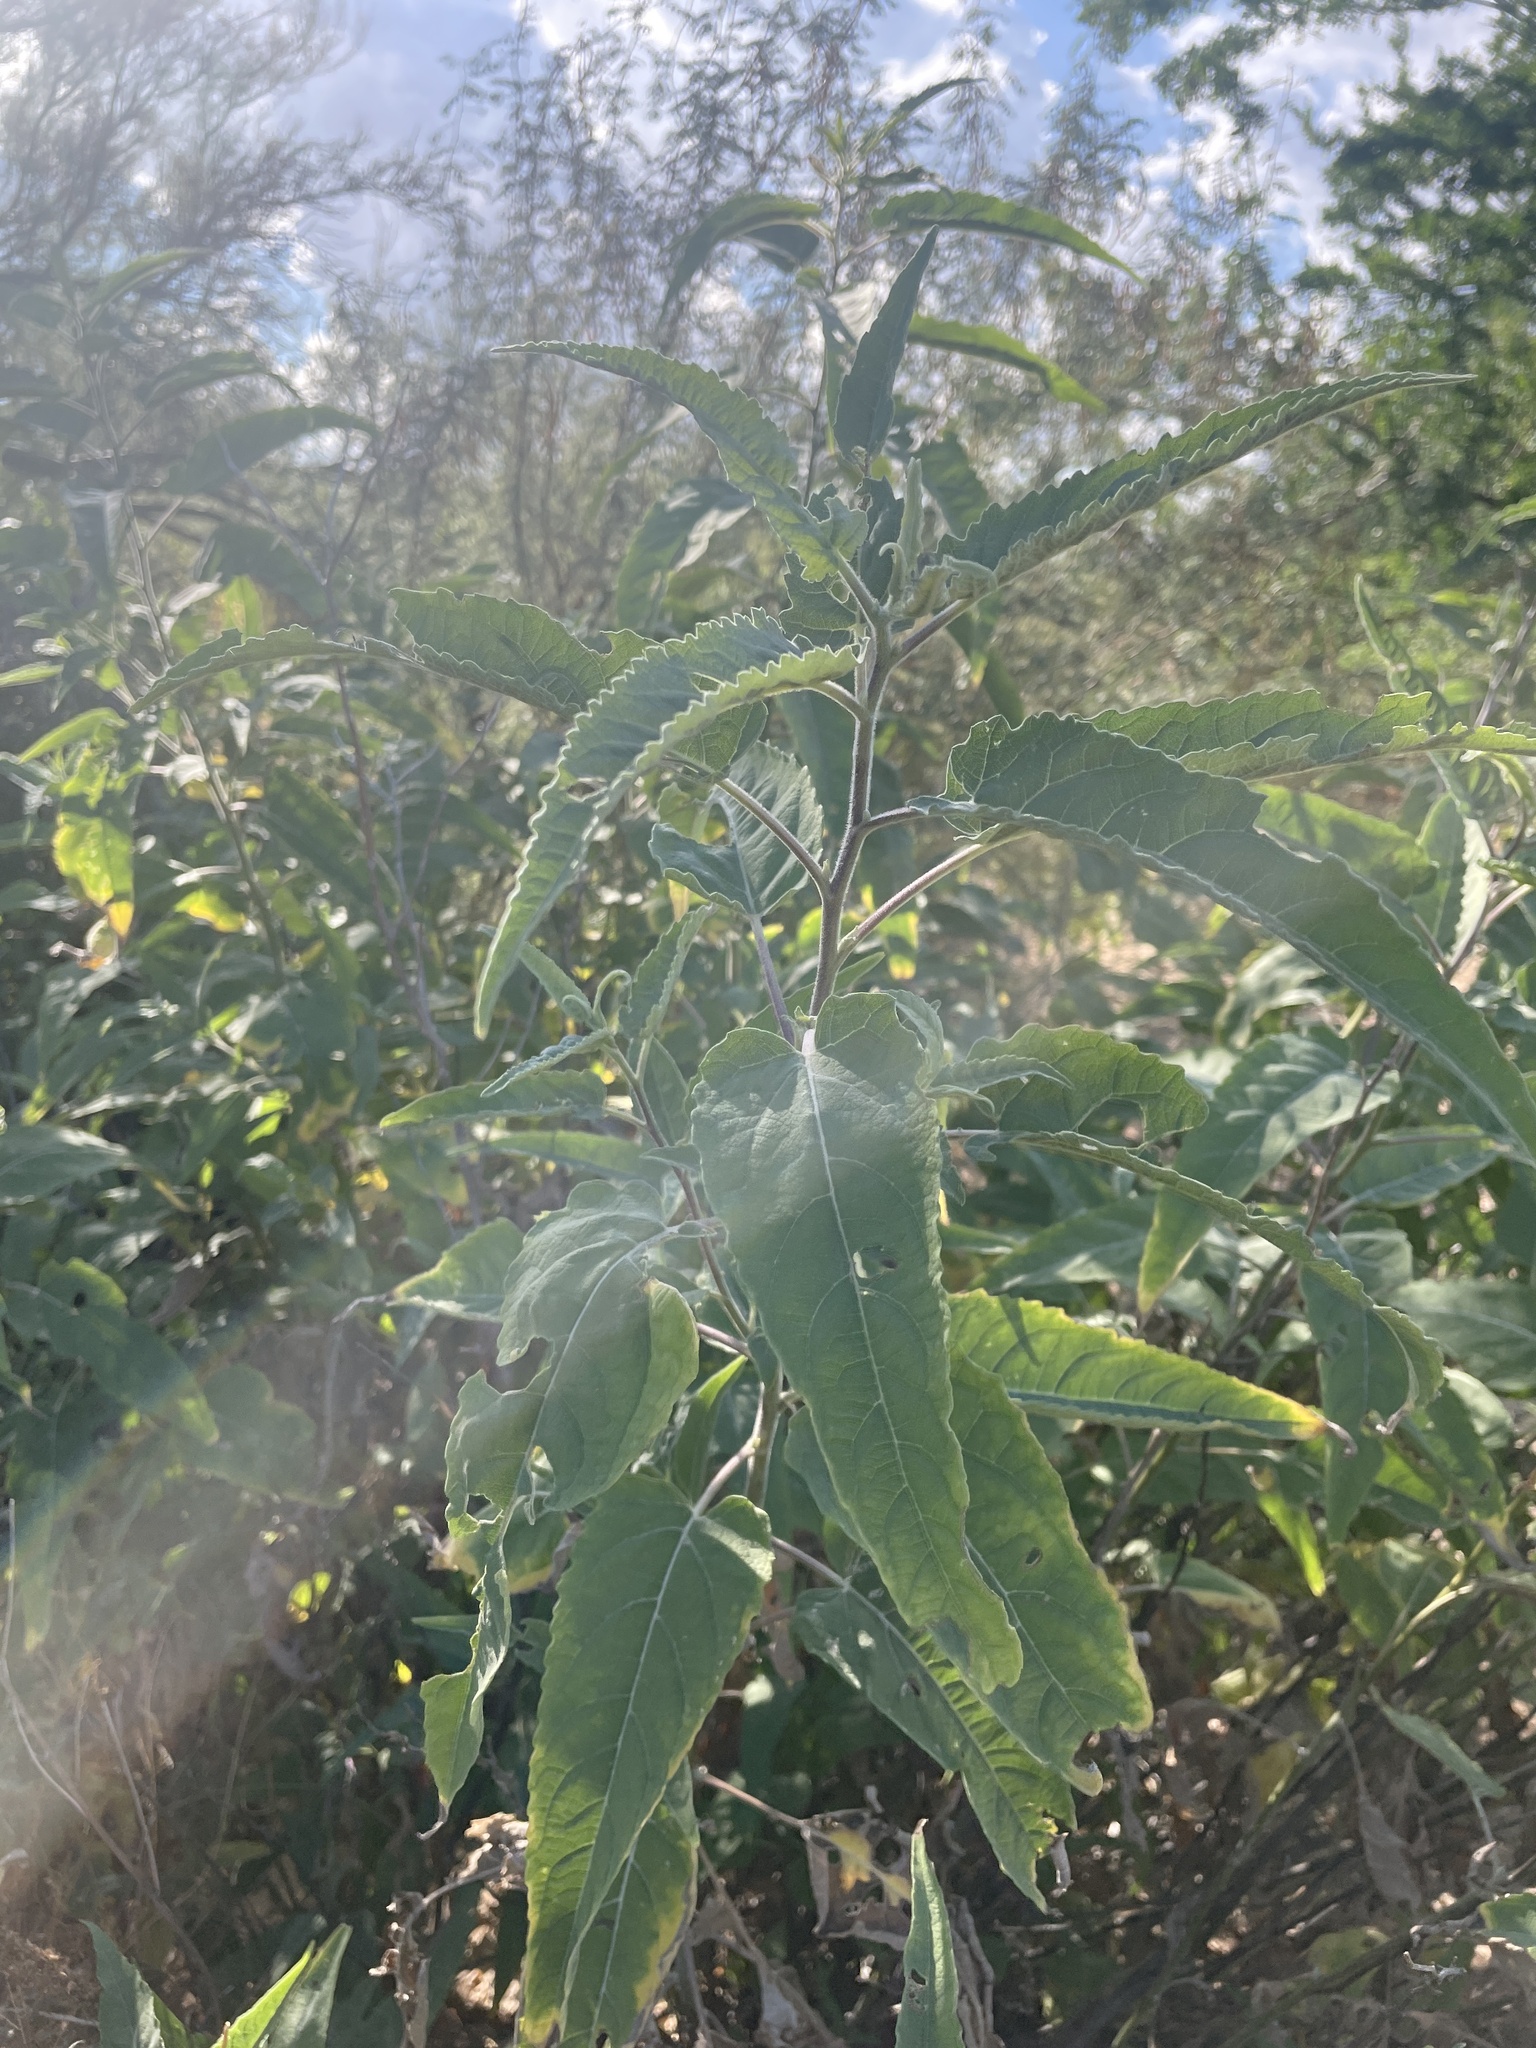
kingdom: Plantae
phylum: Tracheophyta
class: Magnoliopsida
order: Asterales
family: Asteraceae
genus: Ambrosia
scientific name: Ambrosia ambrosioides
